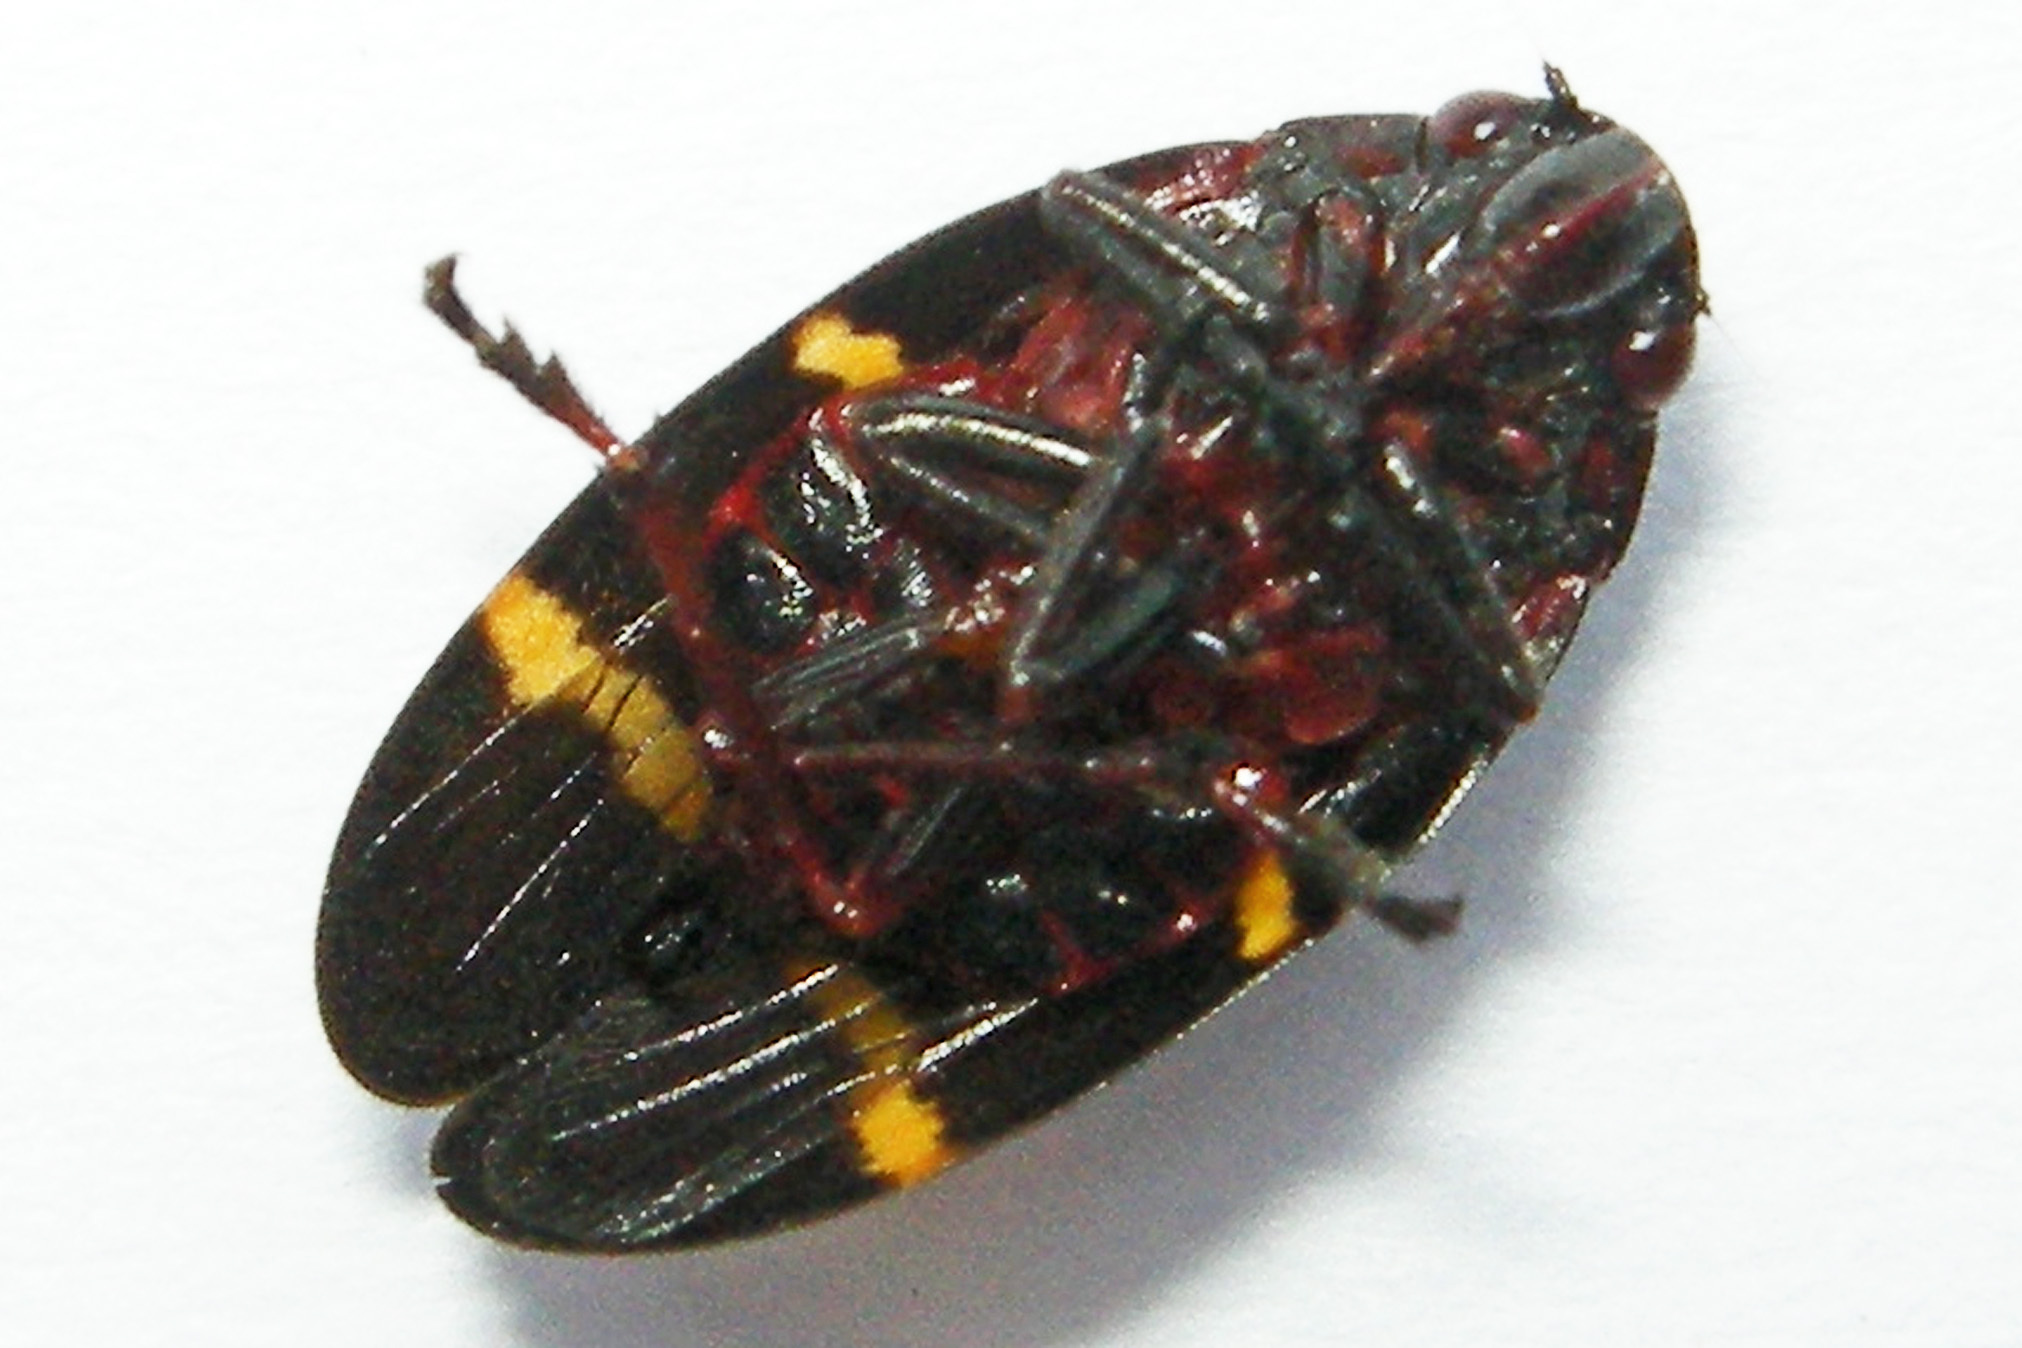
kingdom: Animalia
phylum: Arthropoda
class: Insecta
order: Hemiptera
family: Cercopidae
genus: Prosapia
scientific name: Prosapia bicincta
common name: Twolined spittlebug
